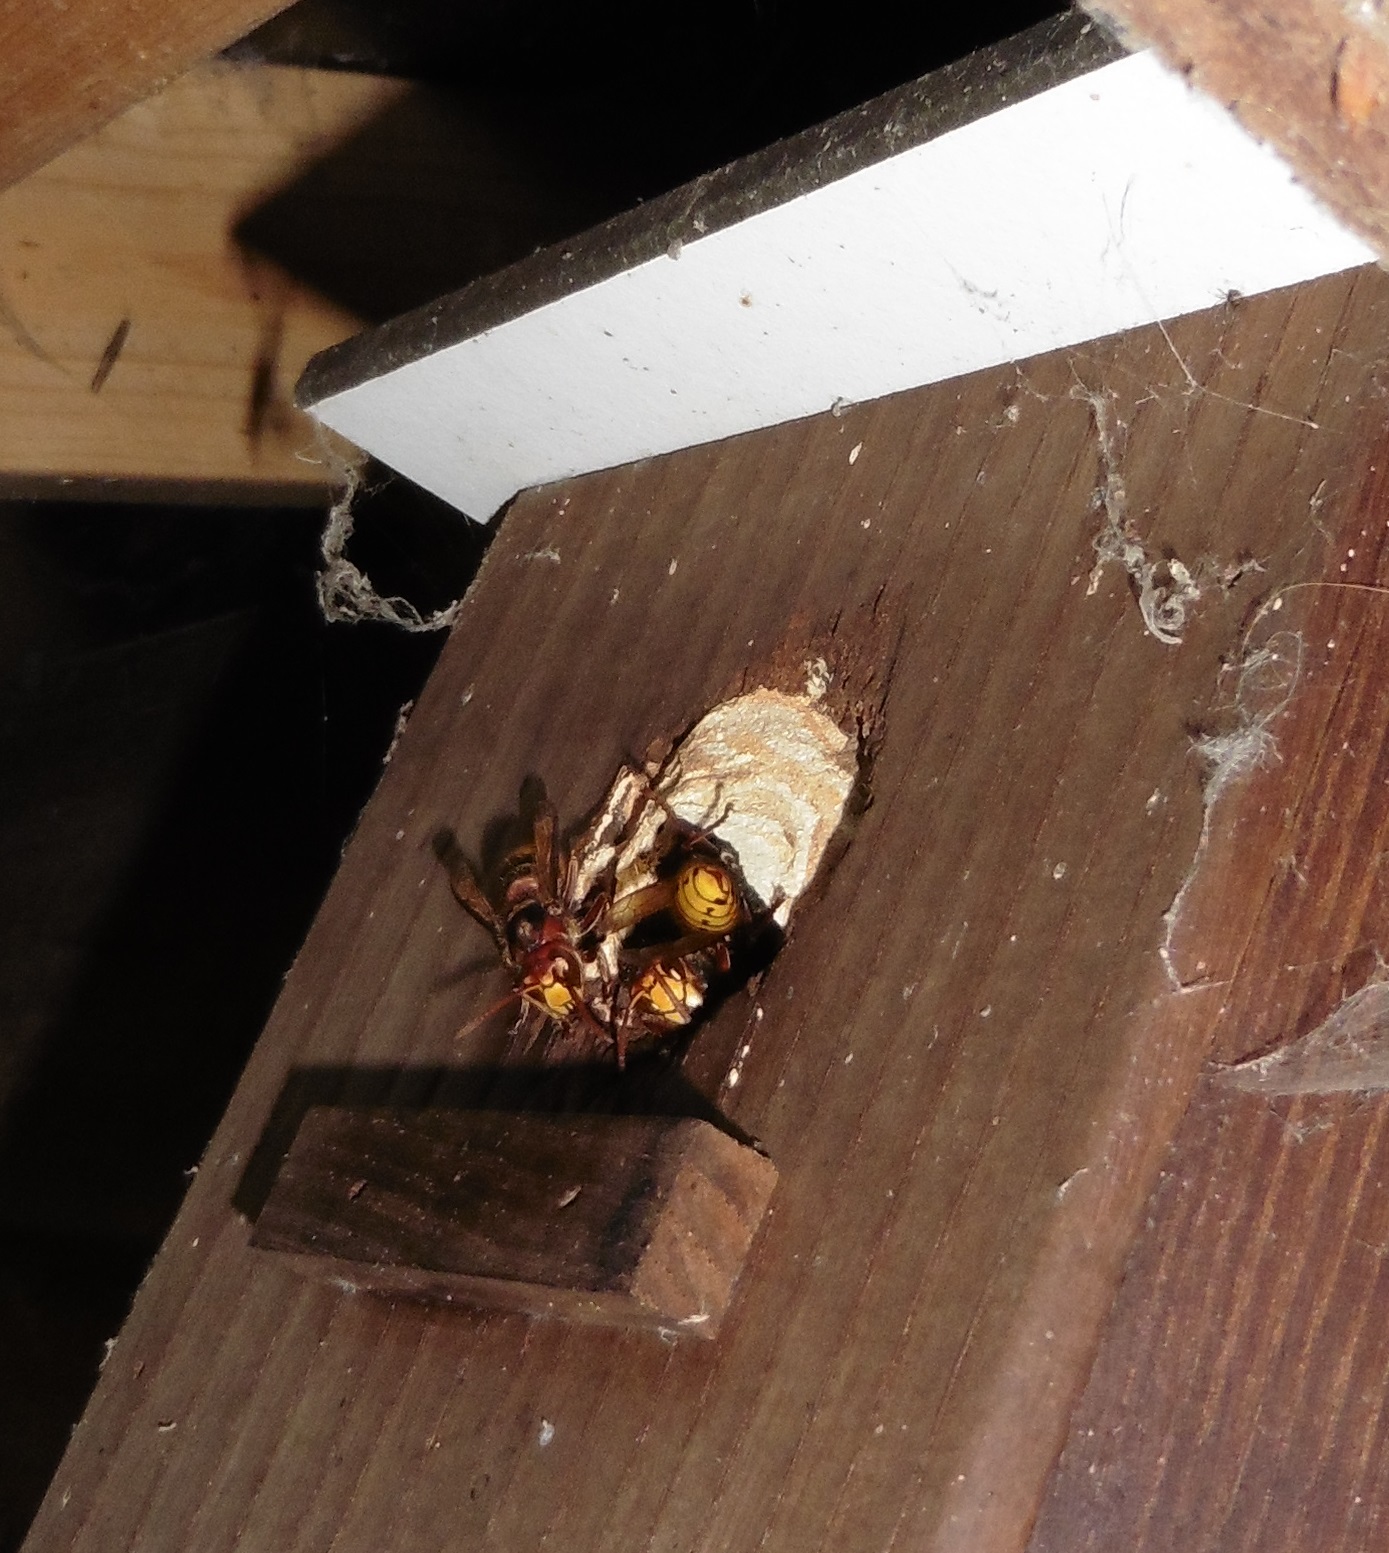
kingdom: Animalia
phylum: Arthropoda
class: Insecta
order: Hymenoptera
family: Vespidae
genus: Vespa
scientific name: Vespa crabro
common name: Hornet
